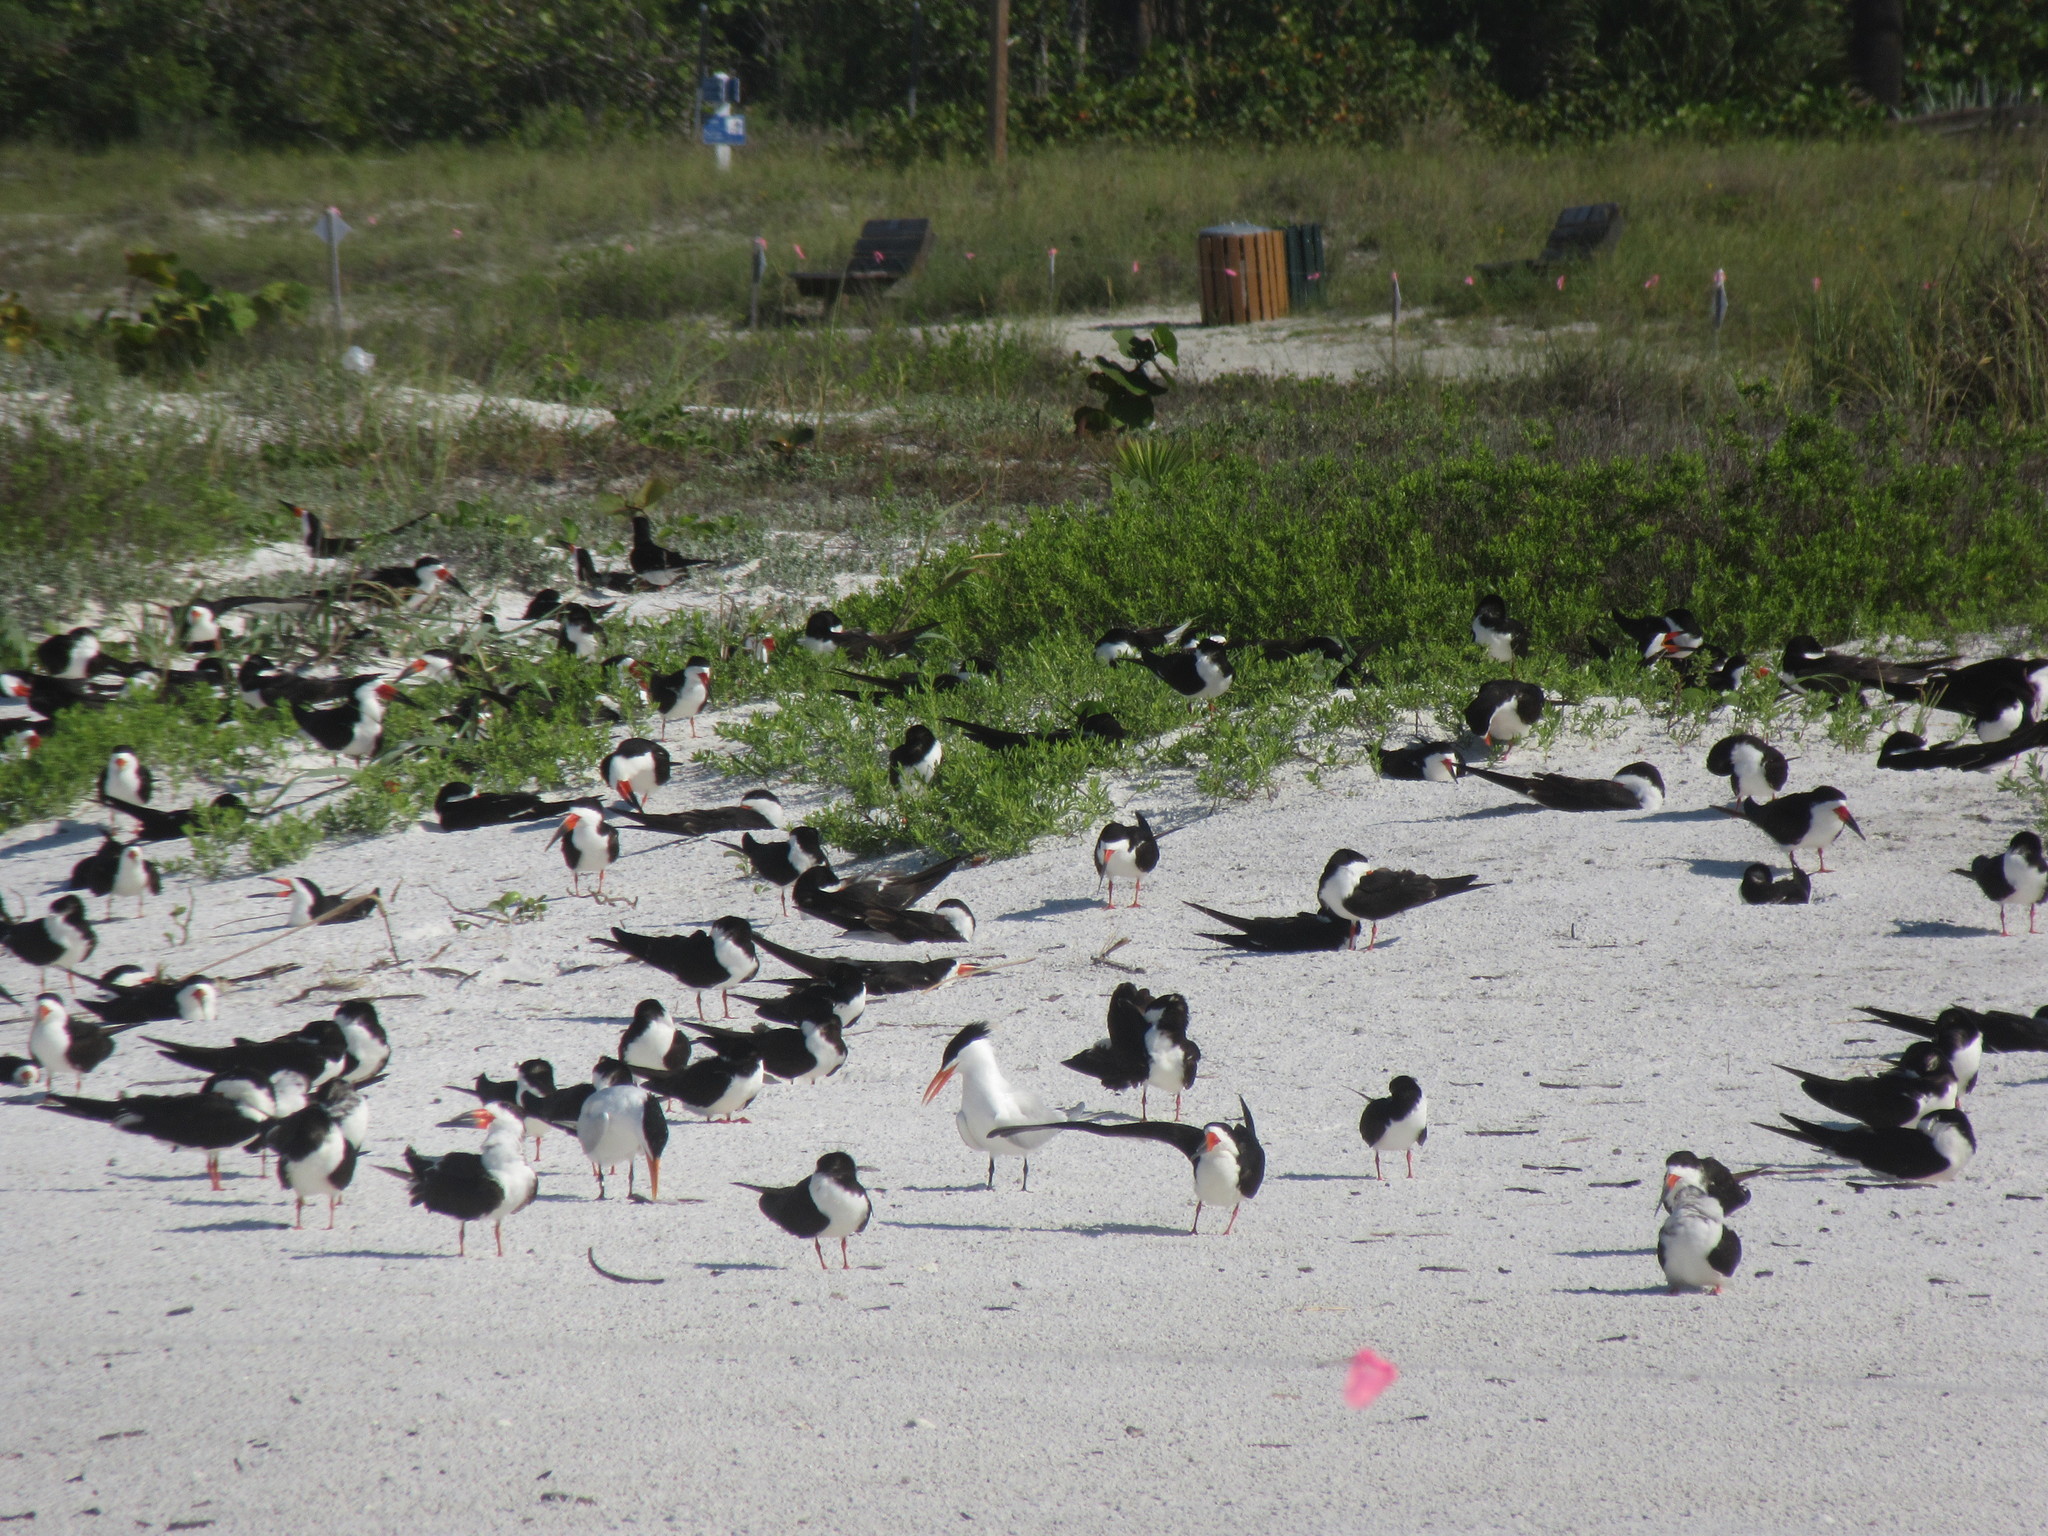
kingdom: Animalia
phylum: Chordata
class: Aves
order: Charadriiformes
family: Laridae
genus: Rynchops
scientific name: Rynchops niger
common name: Black skimmer
